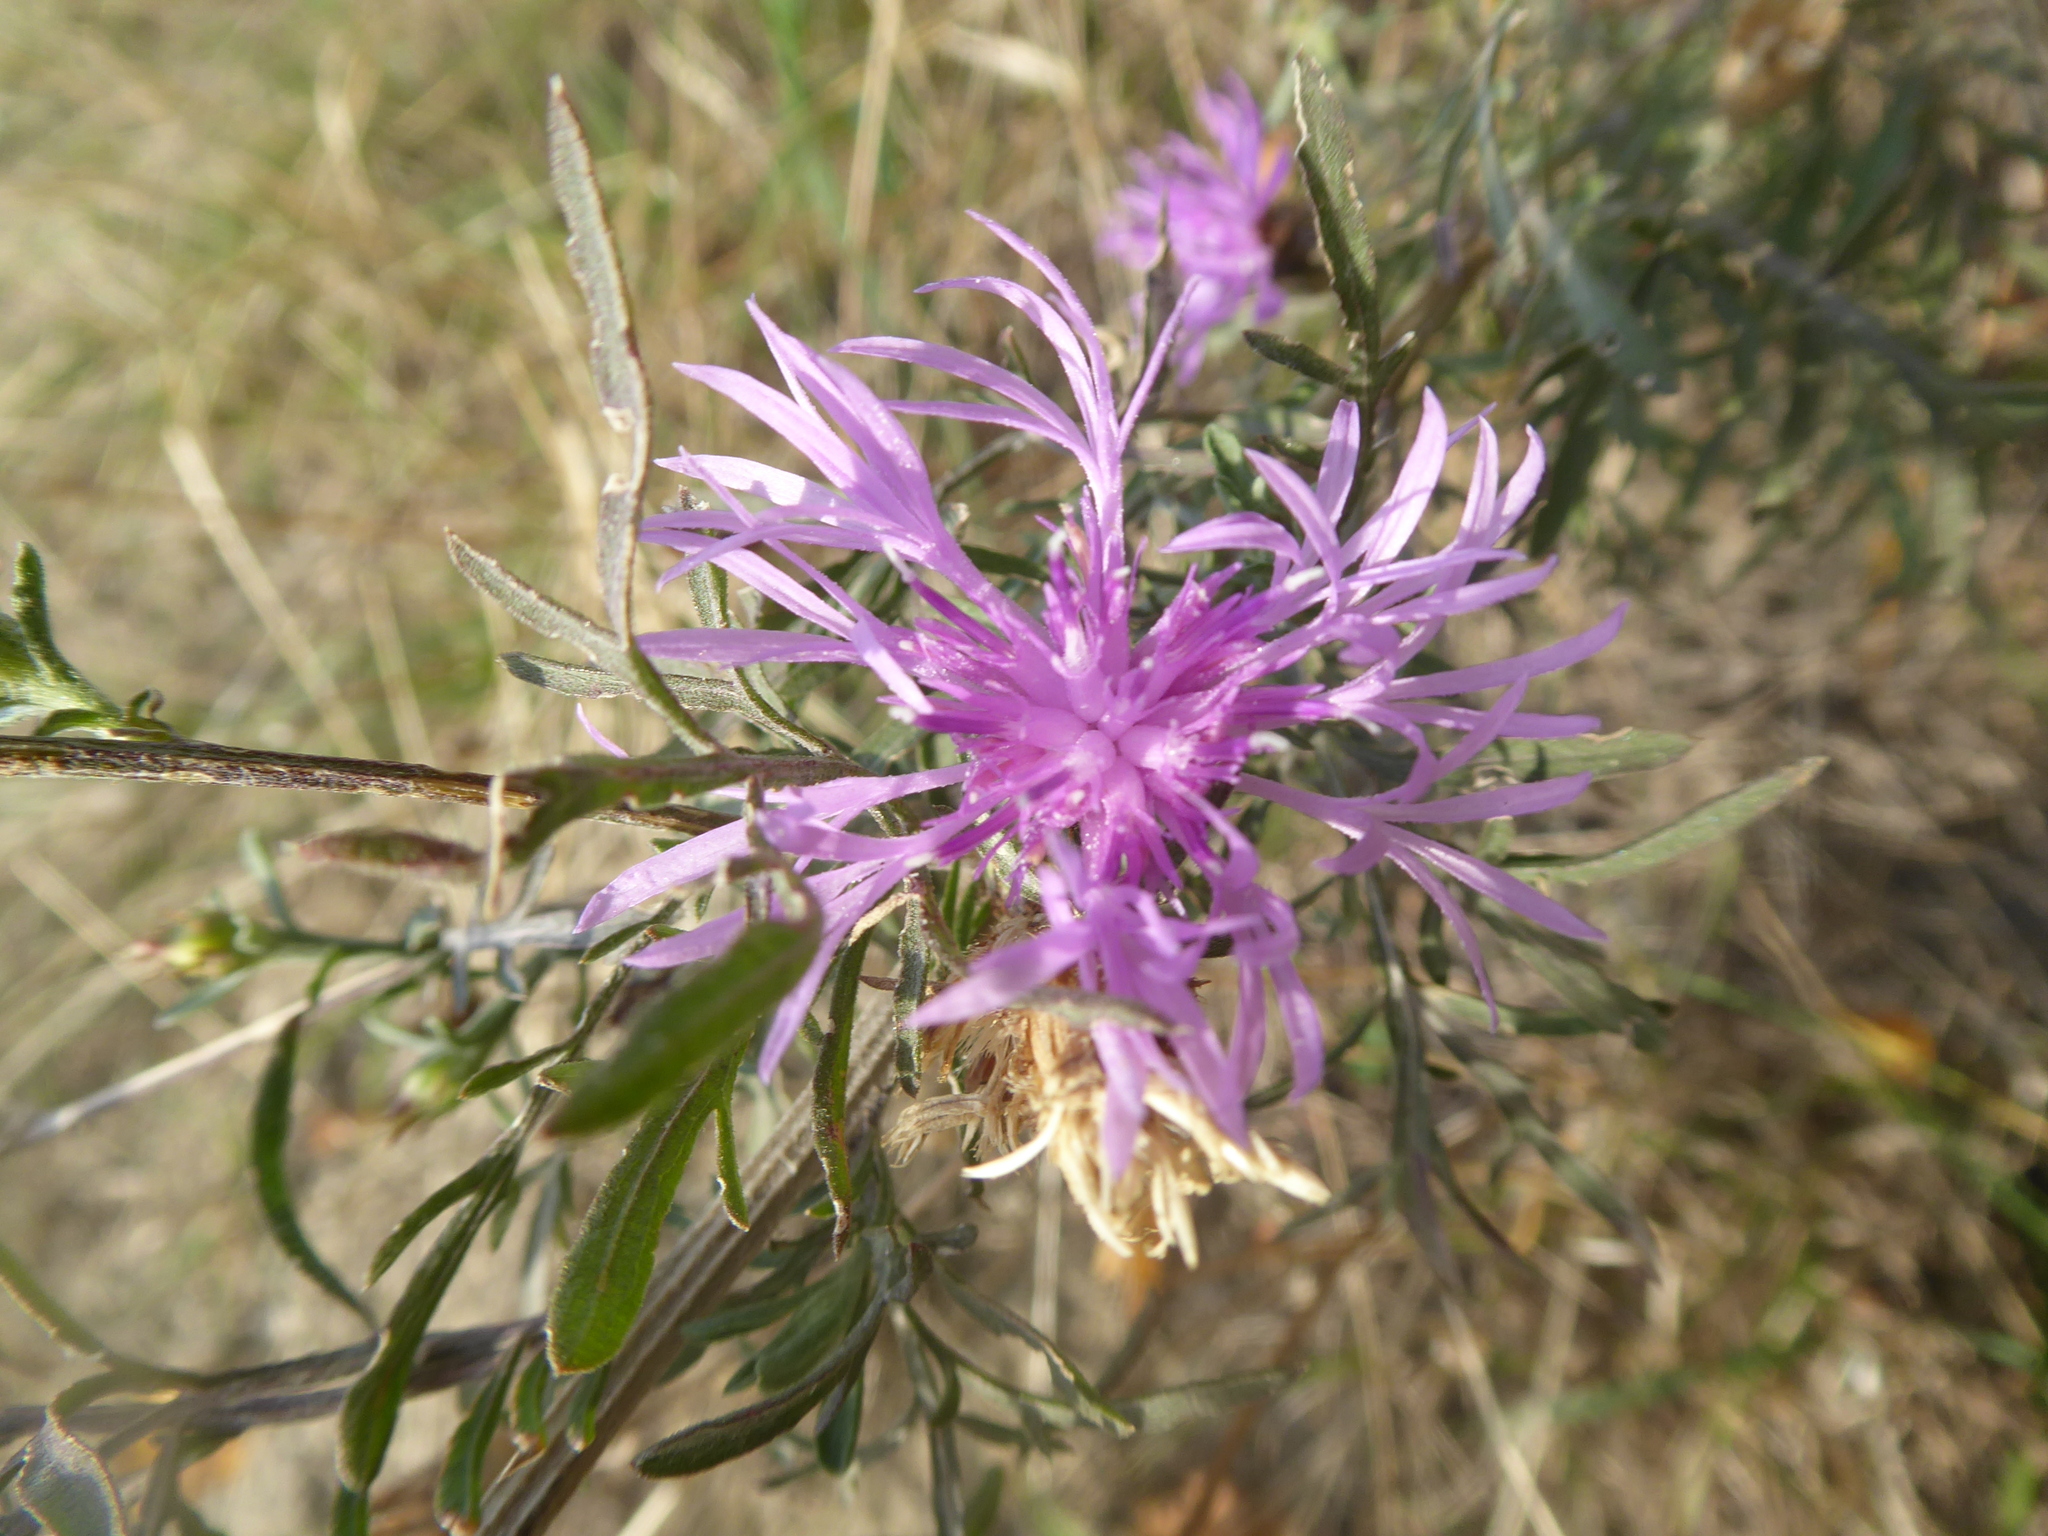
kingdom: Plantae
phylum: Tracheophyta
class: Magnoliopsida
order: Asterales
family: Asteraceae
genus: Centaurea
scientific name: Centaurea stoebe
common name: Spotted knapweed
